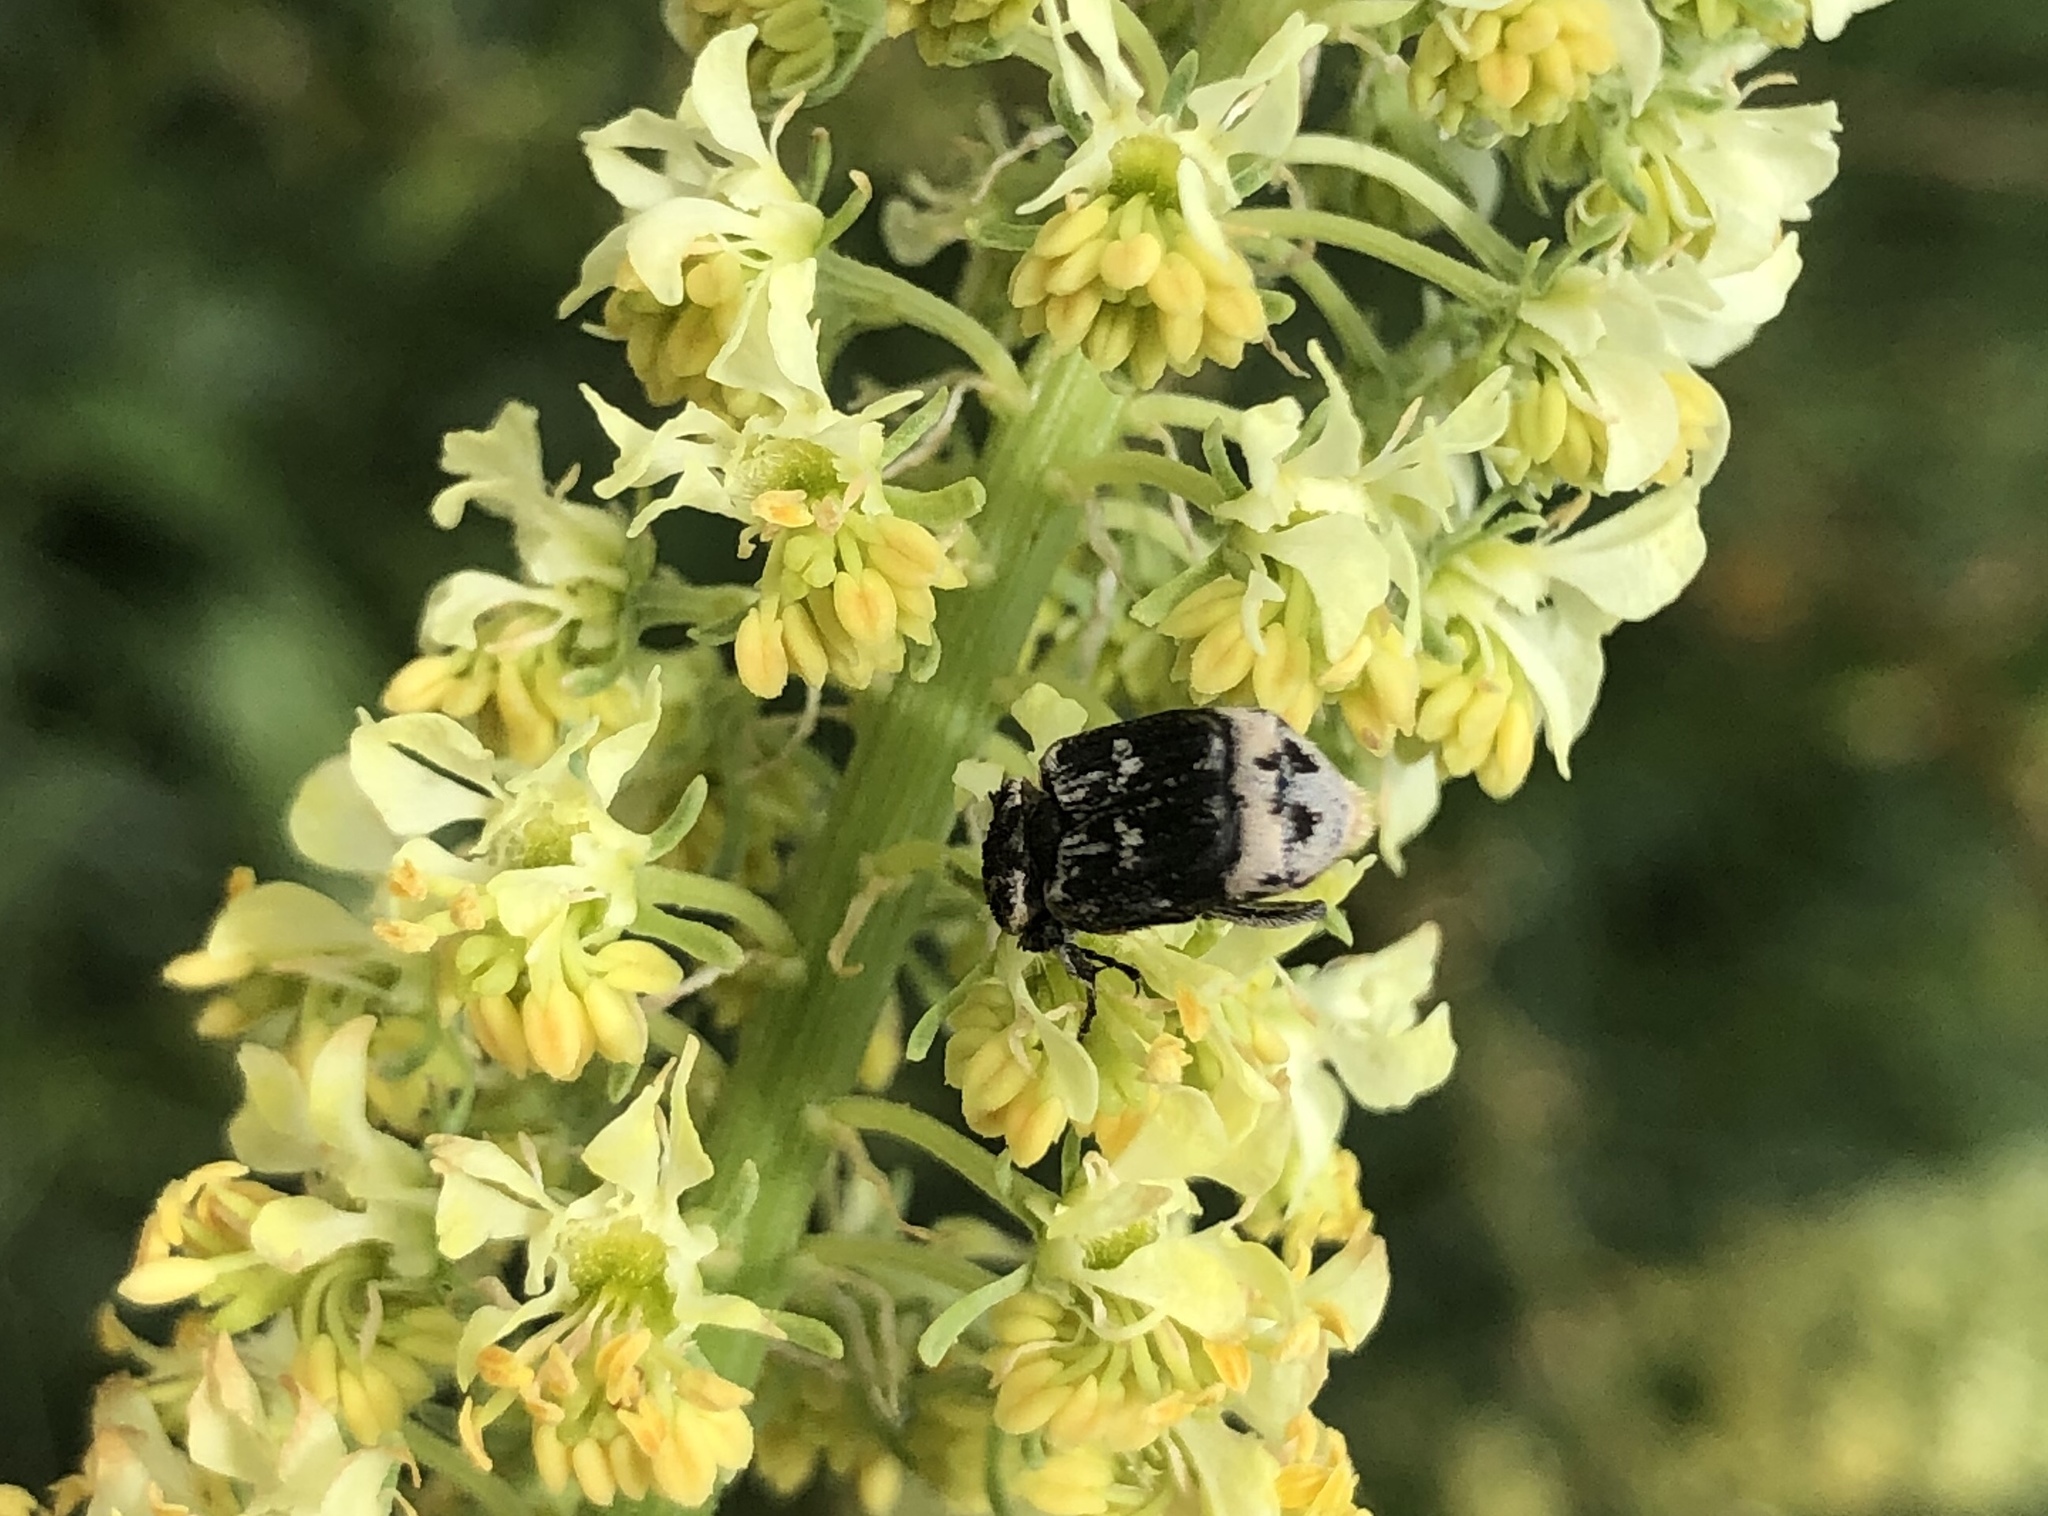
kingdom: Animalia
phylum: Arthropoda
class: Insecta
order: Coleoptera
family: Scarabaeidae
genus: Valgus
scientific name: Valgus hemipterus
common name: Bug flower chafer
